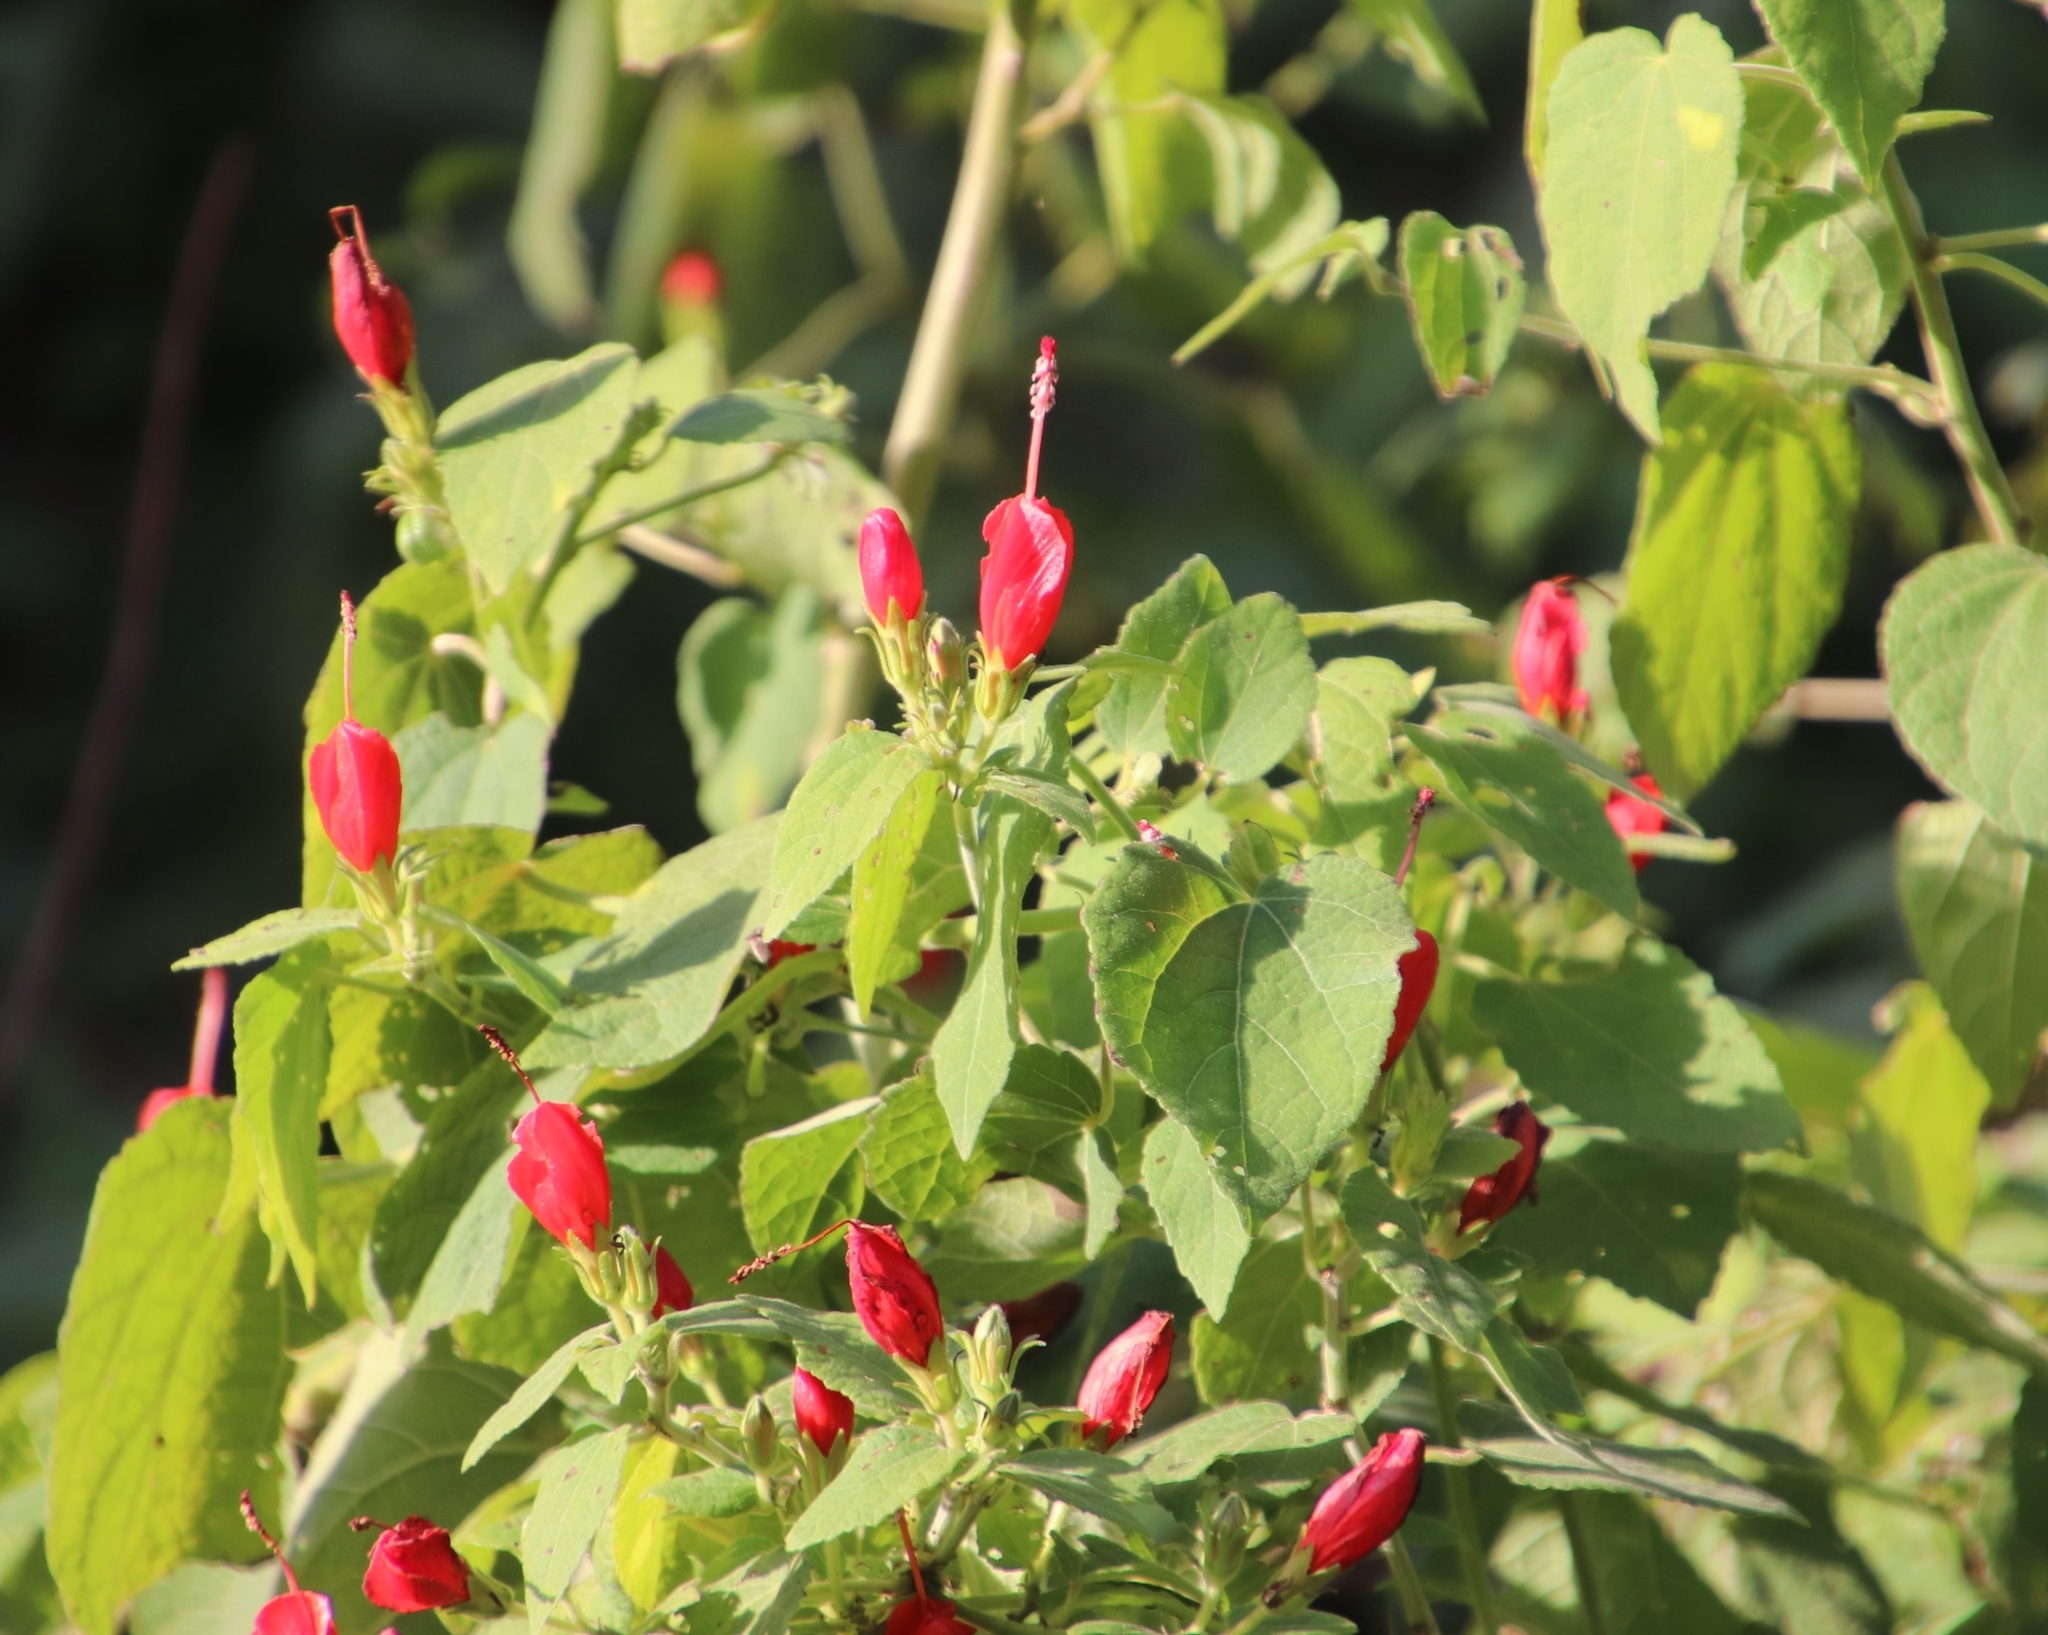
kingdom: Plantae
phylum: Tracheophyta
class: Magnoliopsida
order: Malvales
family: Malvaceae
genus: Malvaviscus
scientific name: Malvaviscus arboreus
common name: Wax mallow
